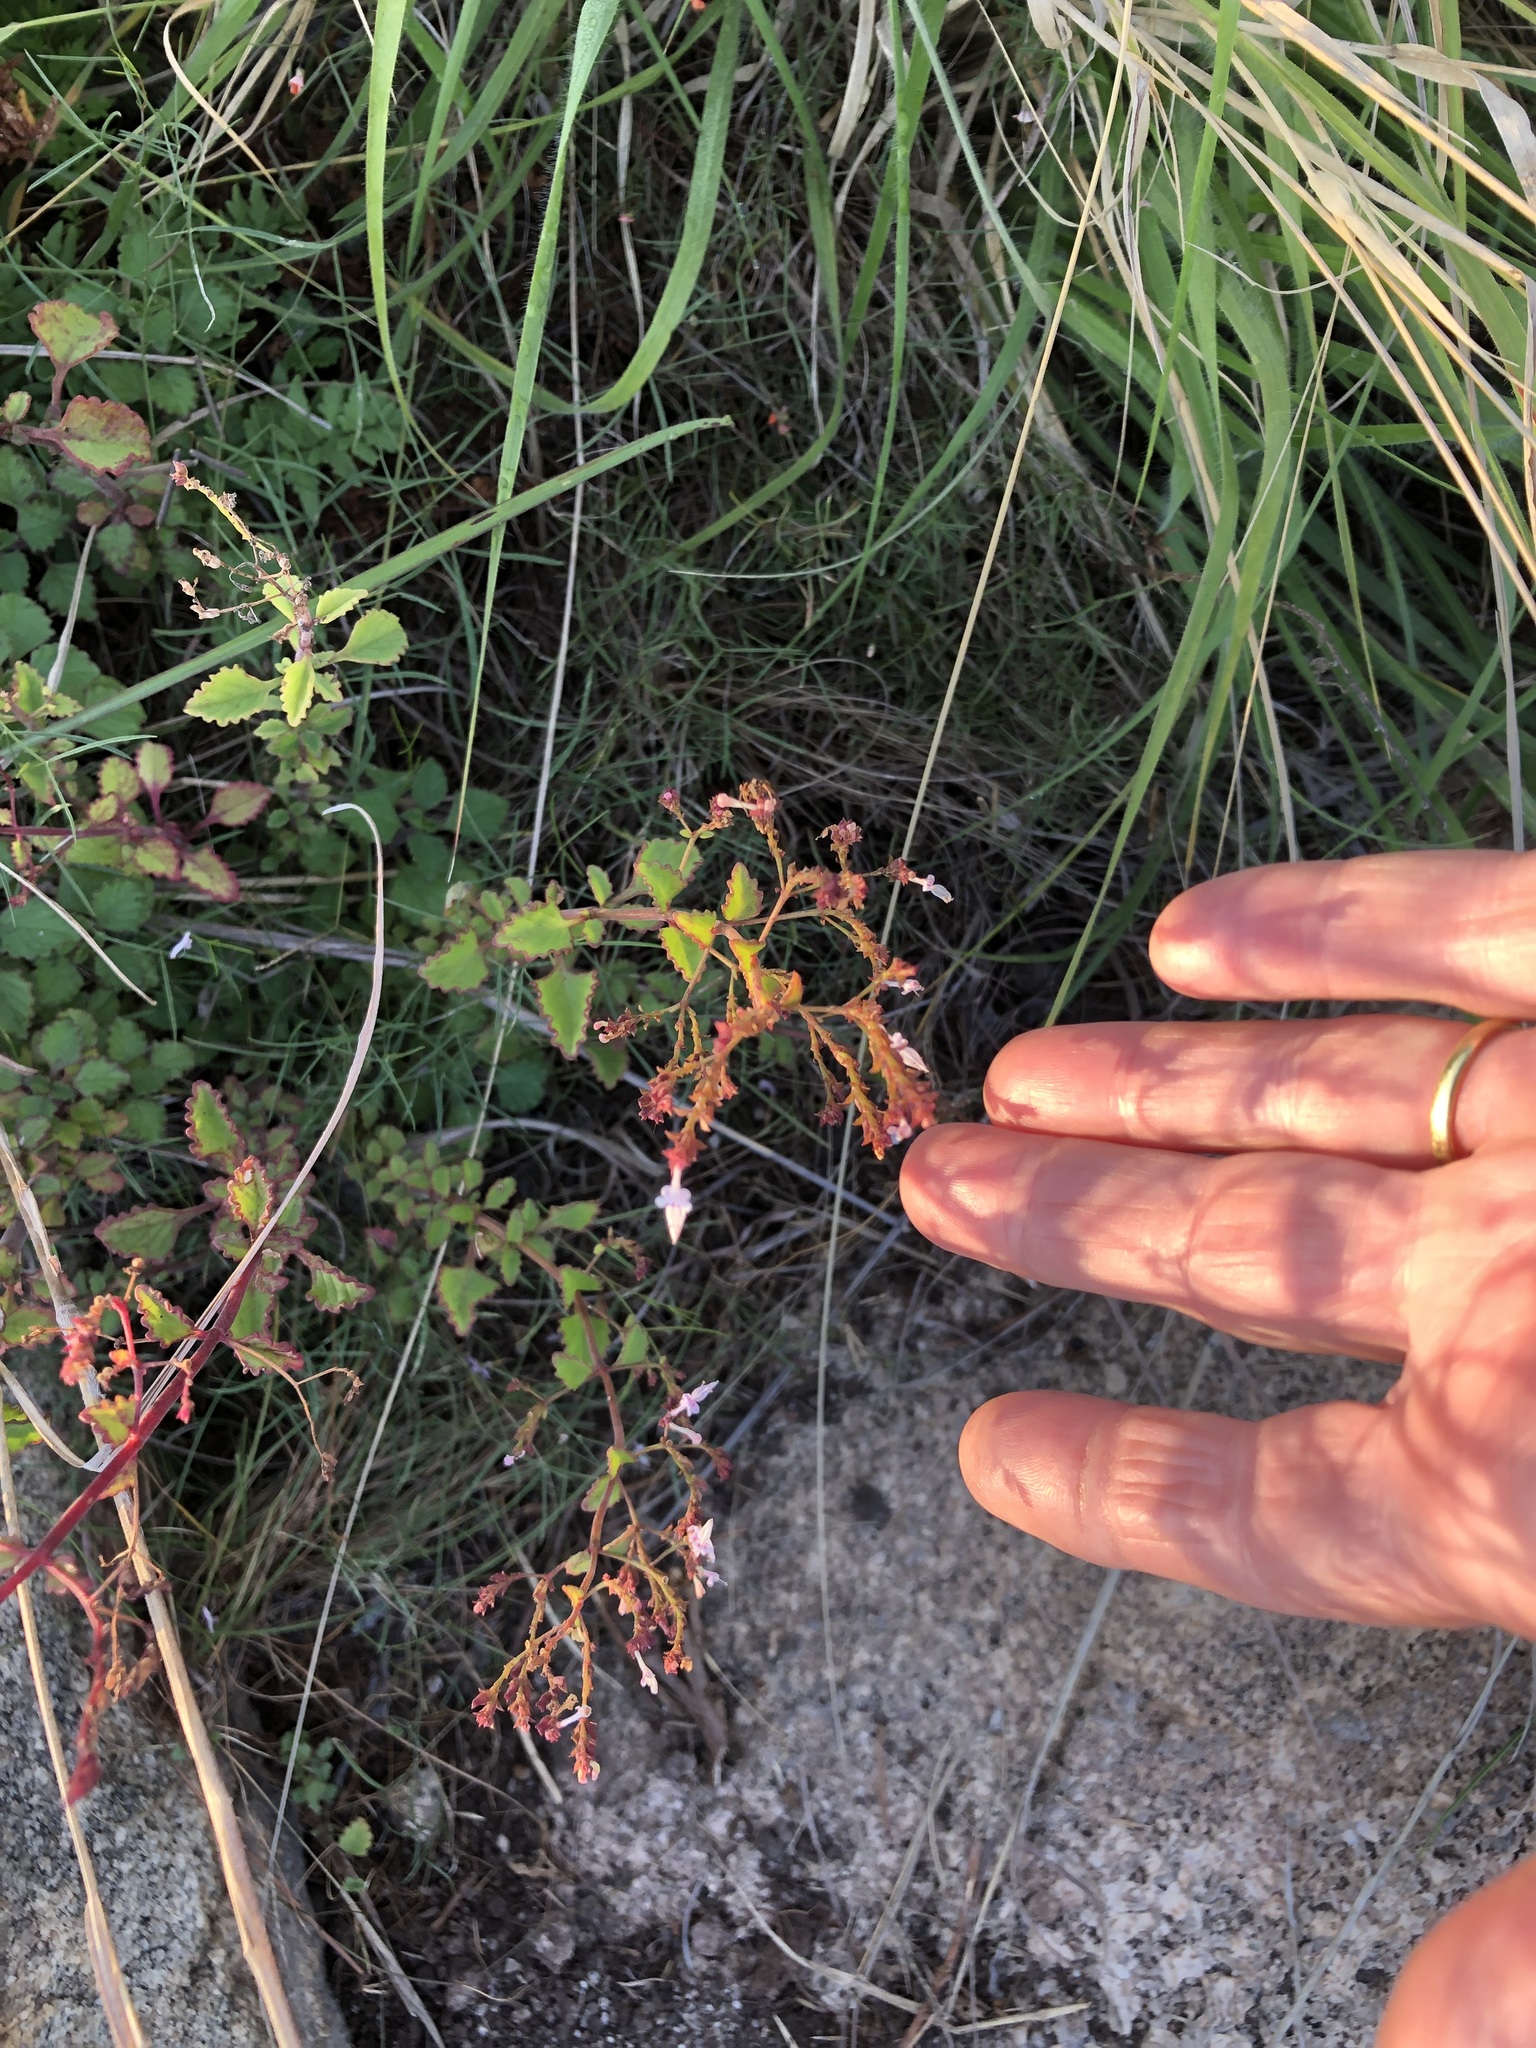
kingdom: Plantae
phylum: Tracheophyta
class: Magnoliopsida
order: Lamiales
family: Lamiaceae
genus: Aeollanthus
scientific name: Aeollanthus rehmannii
